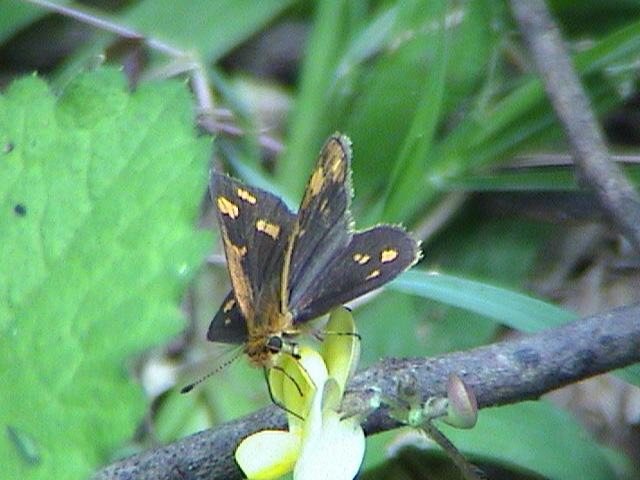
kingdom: Animalia
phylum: Arthropoda
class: Insecta
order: Lepidoptera
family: Hesperiidae
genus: Taractrocera
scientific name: Taractrocera ceramas
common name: Tamil grass dart
